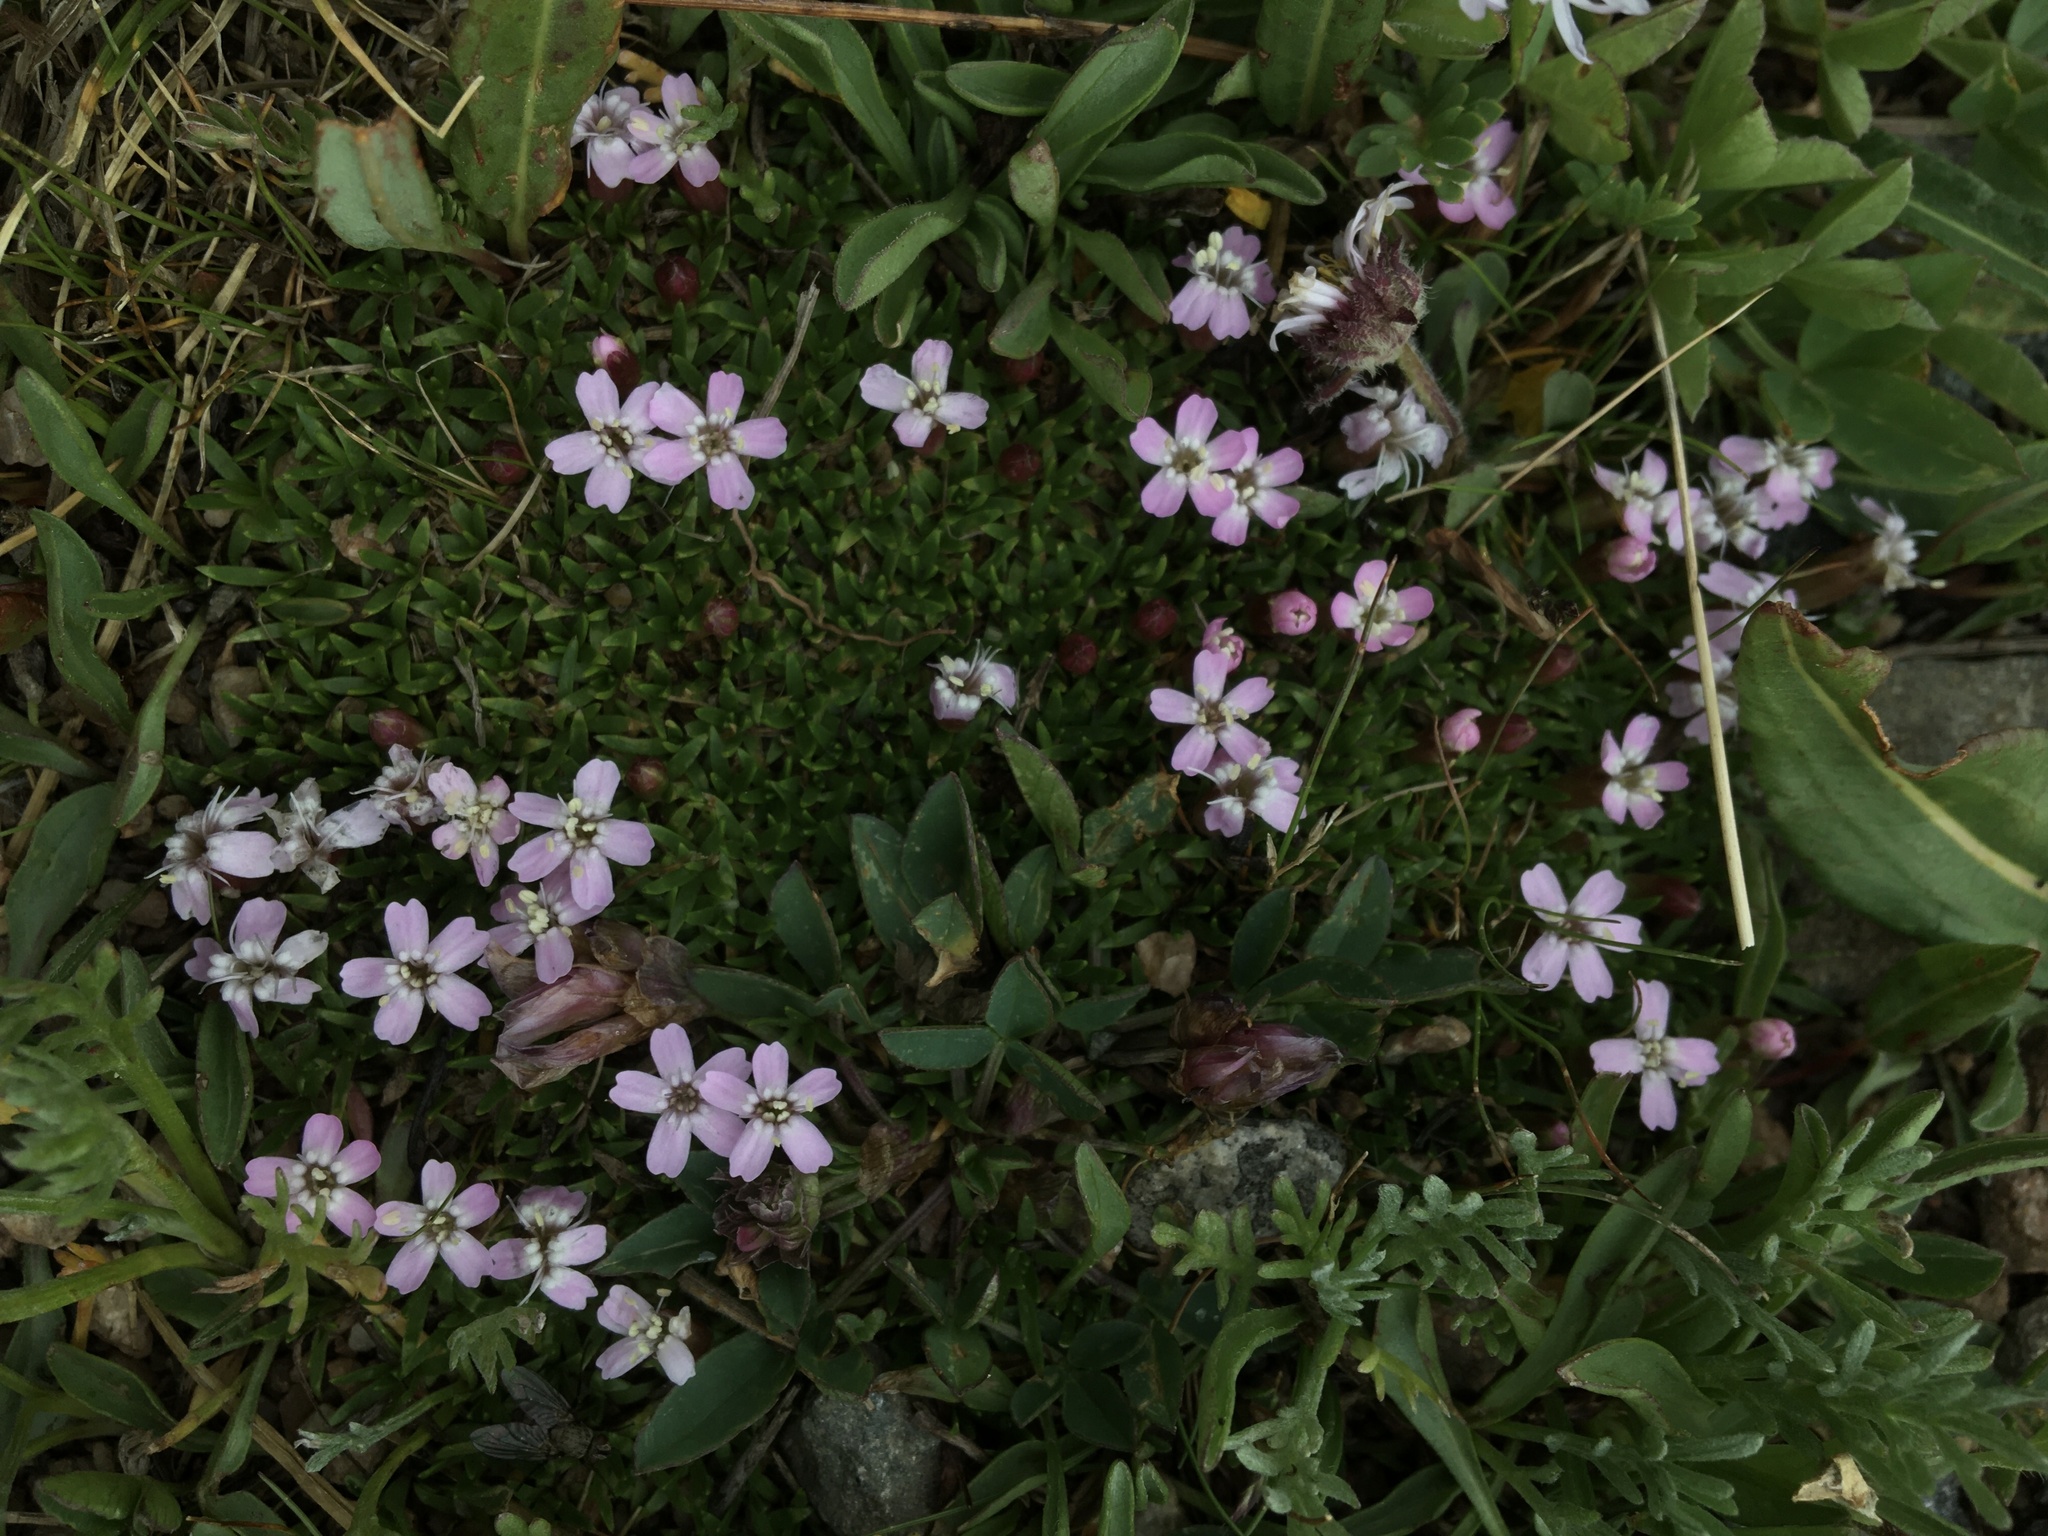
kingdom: Plantae
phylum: Tracheophyta
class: Magnoliopsida
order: Caryophyllales
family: Caryophyllaceae
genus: Silene
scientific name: Silene acaulis
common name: Moss campion
